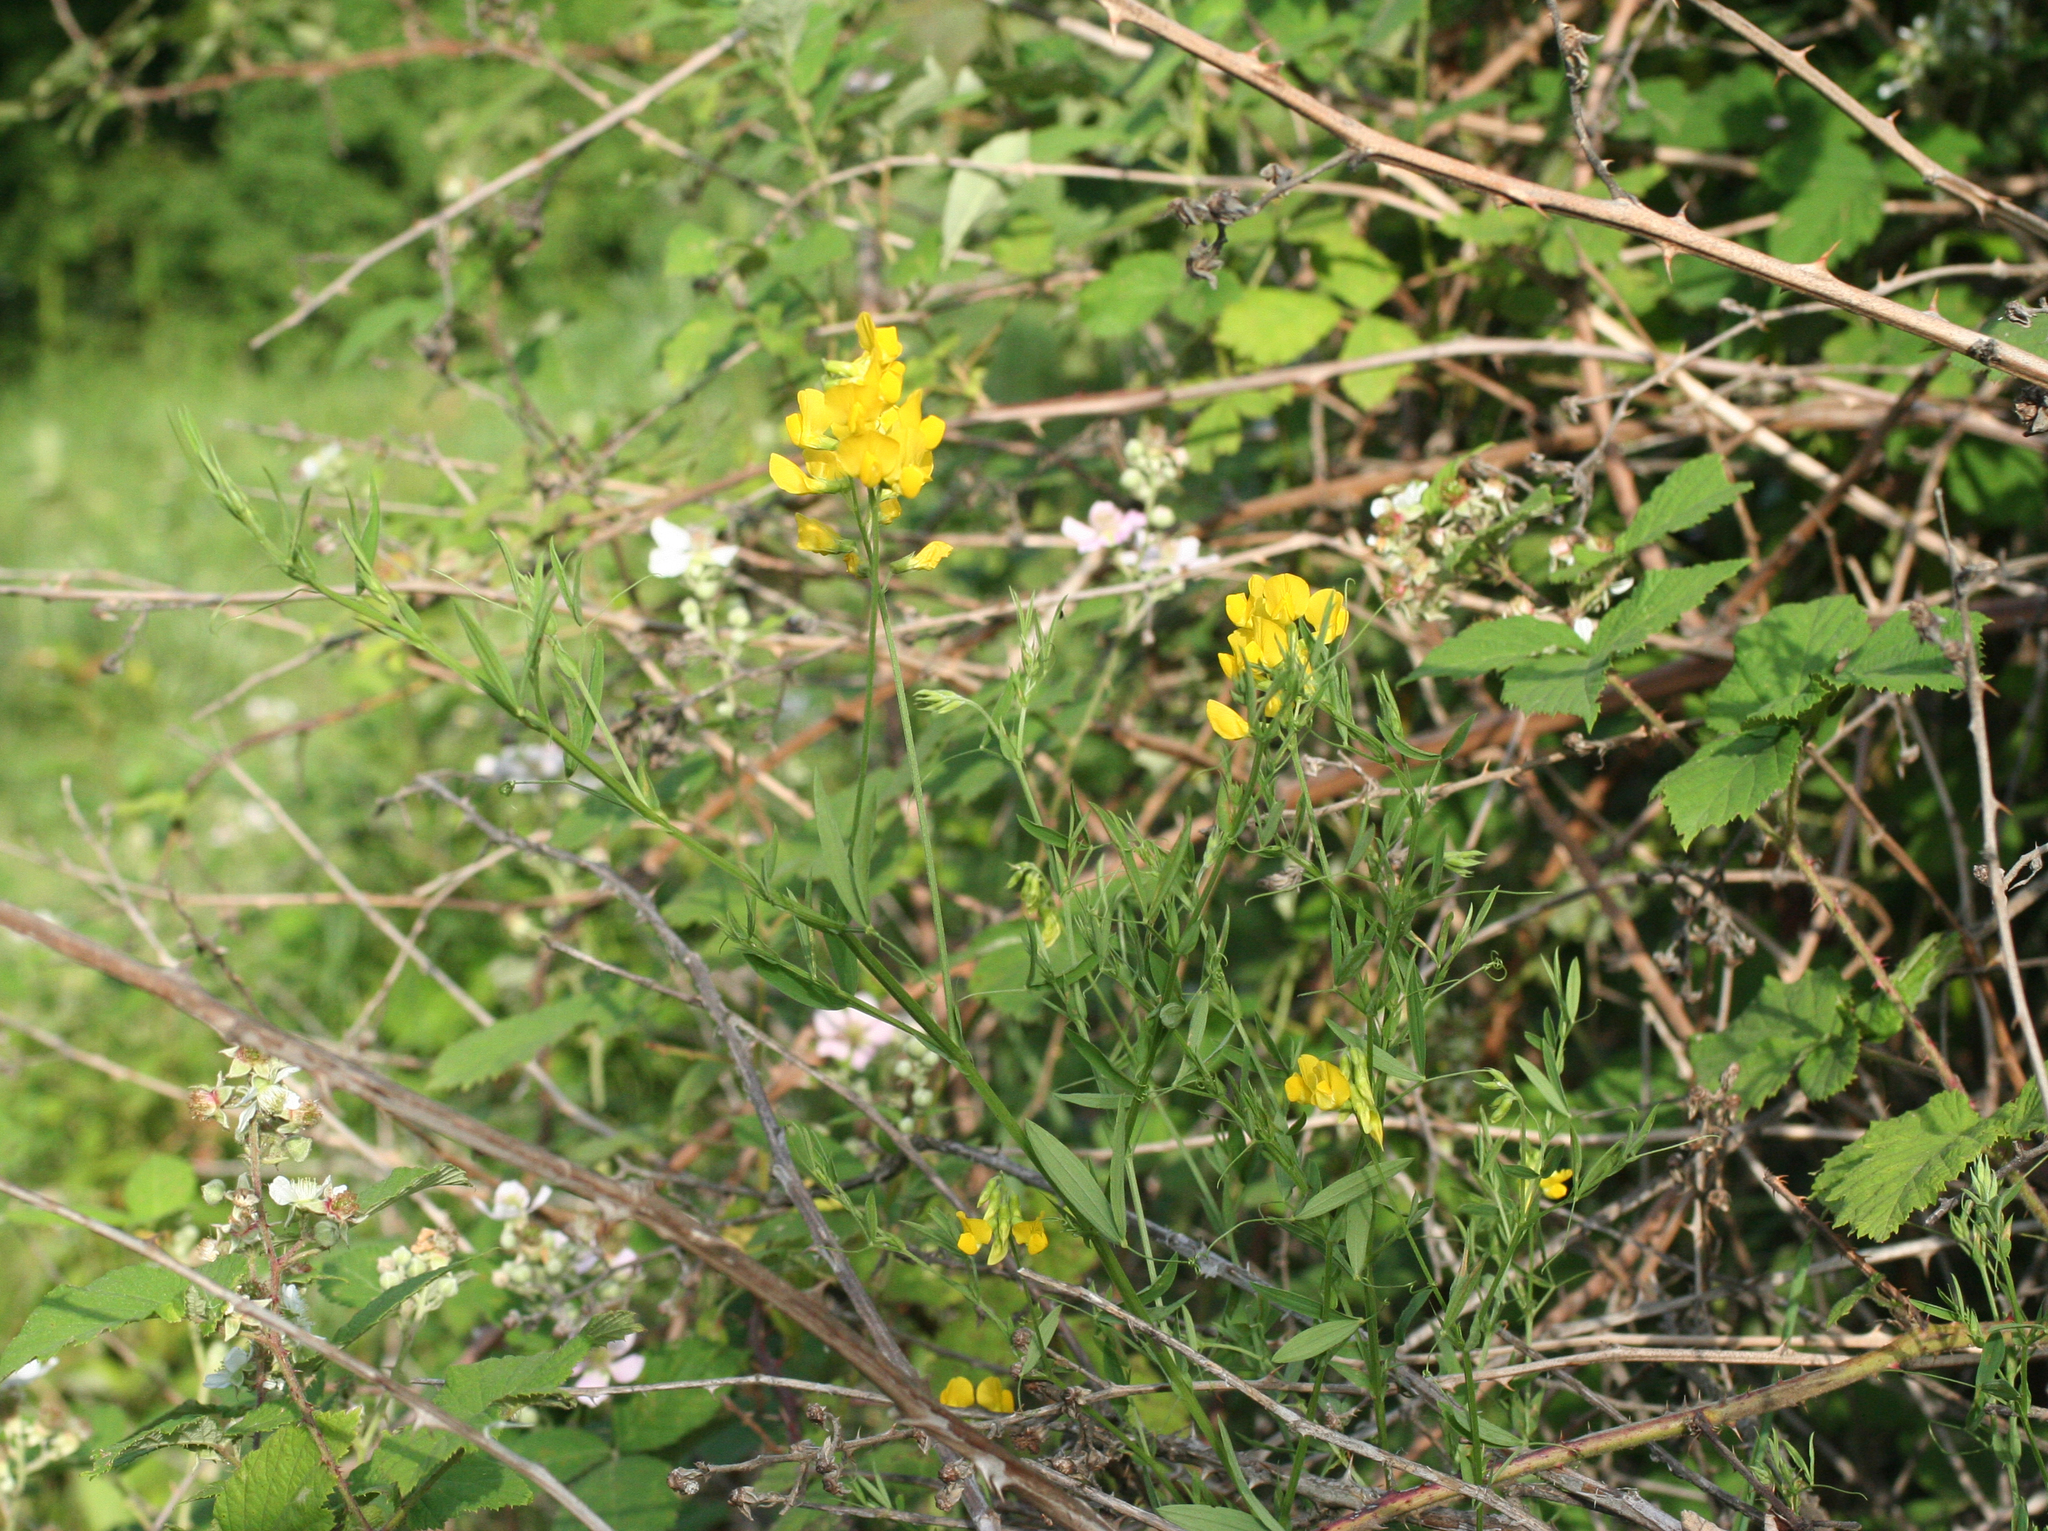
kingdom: Plantae
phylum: Tracheophyta
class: Magnoliopsida
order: Fabales
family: Fabaceae
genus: Lathyrus
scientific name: Lathyrus pratensis
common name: Meadow vetchling
